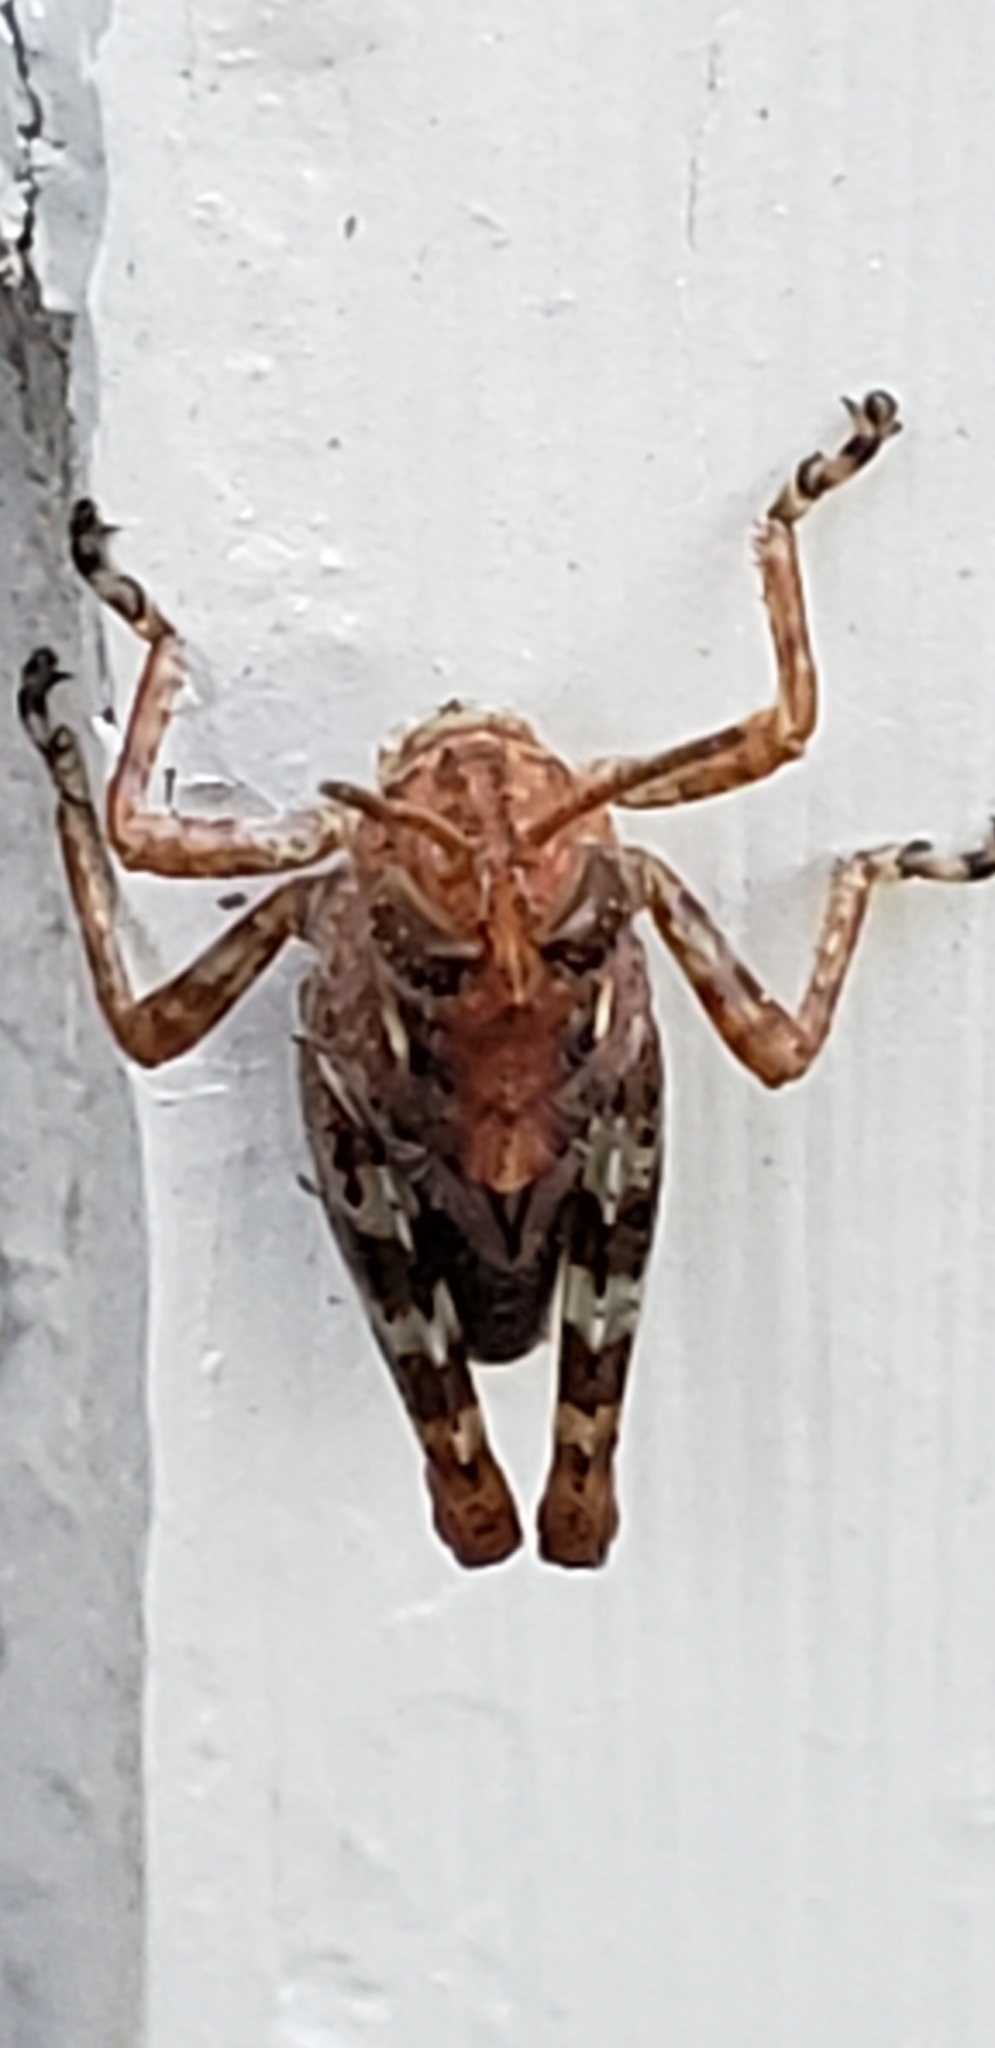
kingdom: Animalia
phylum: Arthropoda
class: Insecta
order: Orthoptera
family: Acrididae
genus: Melanoplus
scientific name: Melanoplus punctulatus
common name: Pine-tree spur-throat grasshopper
